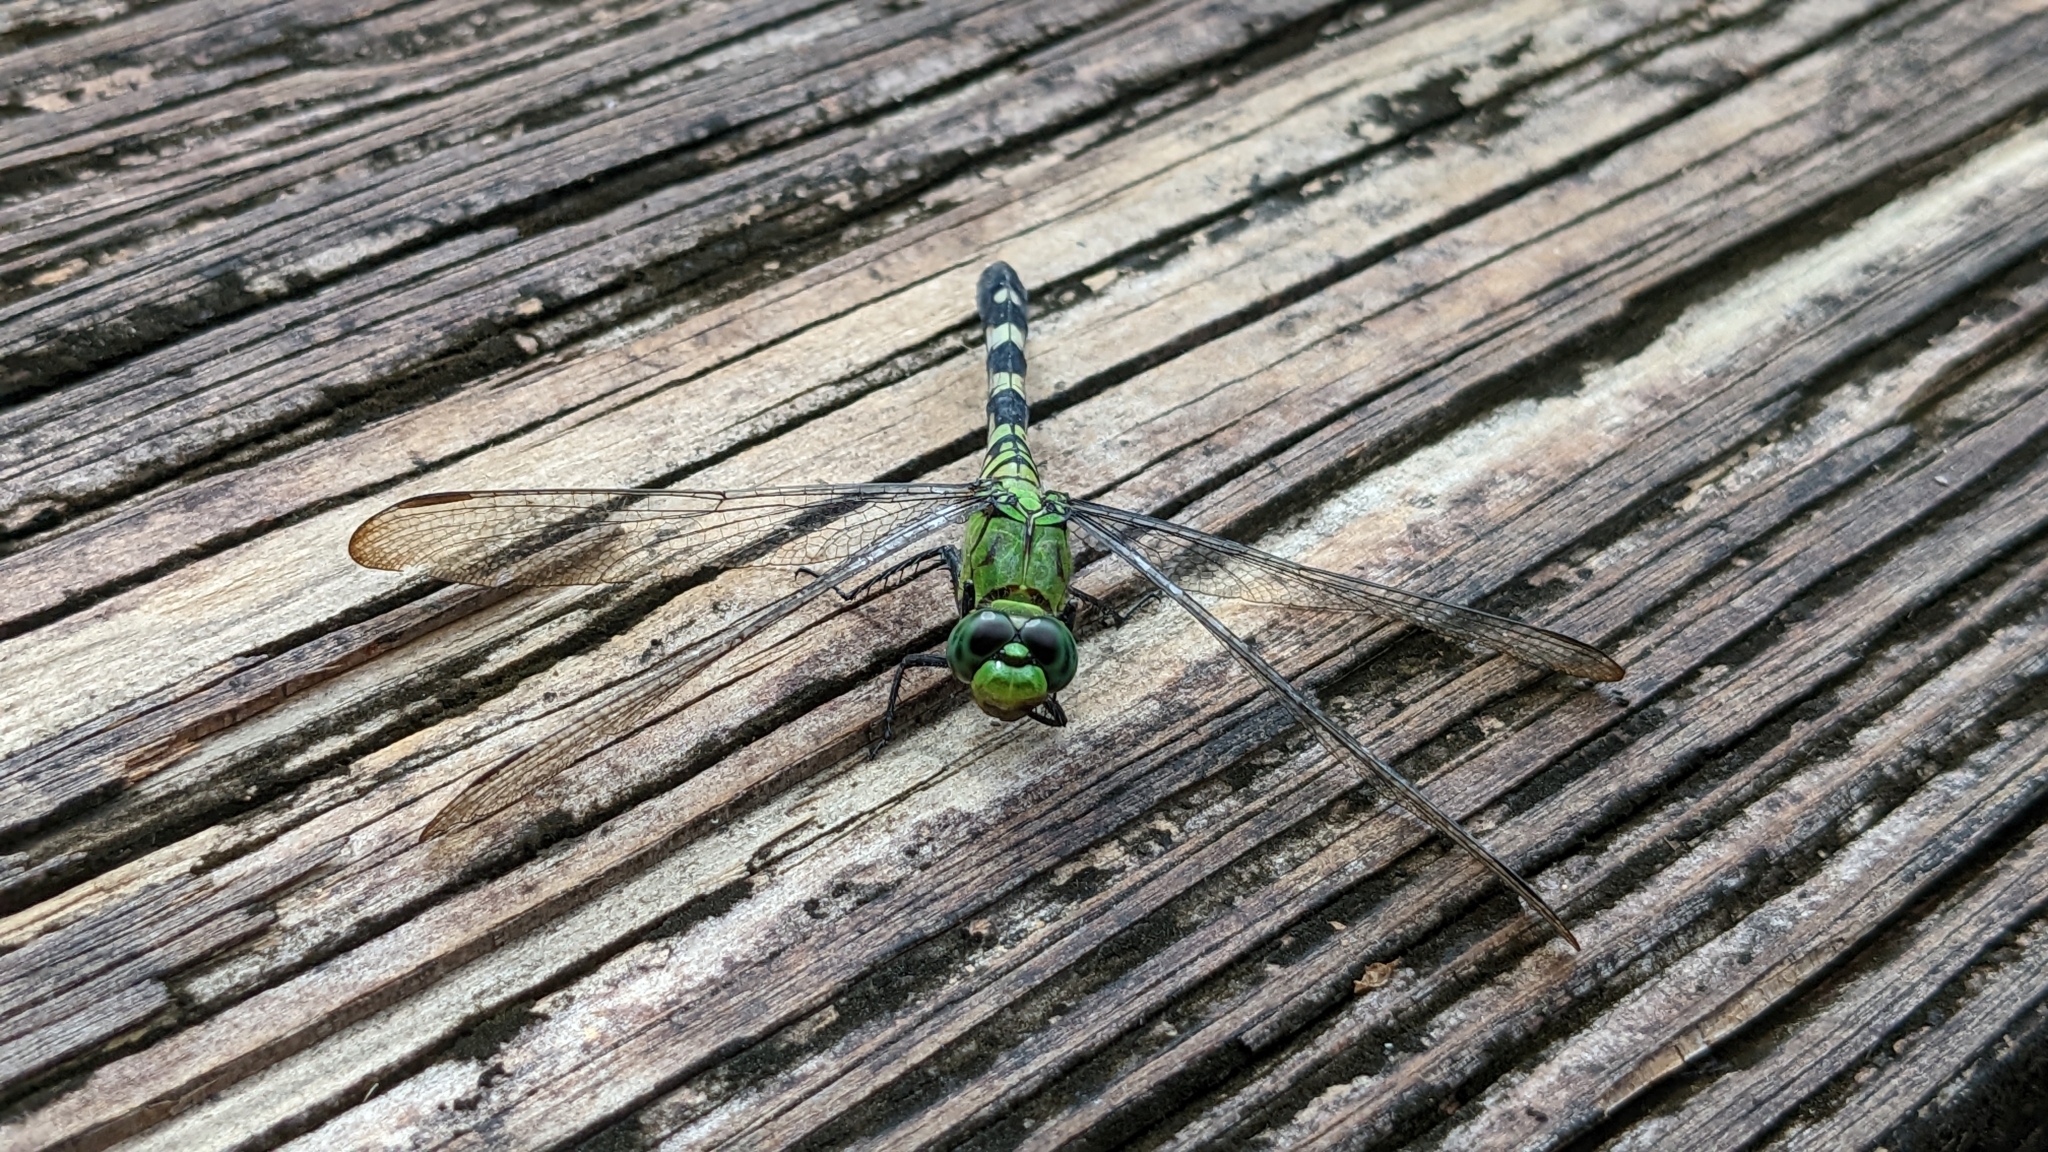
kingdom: Animalia
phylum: Arthropoda
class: Insecta
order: Odonata
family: Libellulidae
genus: Erythemis
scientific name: Erythemis simplicicollis
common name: Eastern pondhawk
